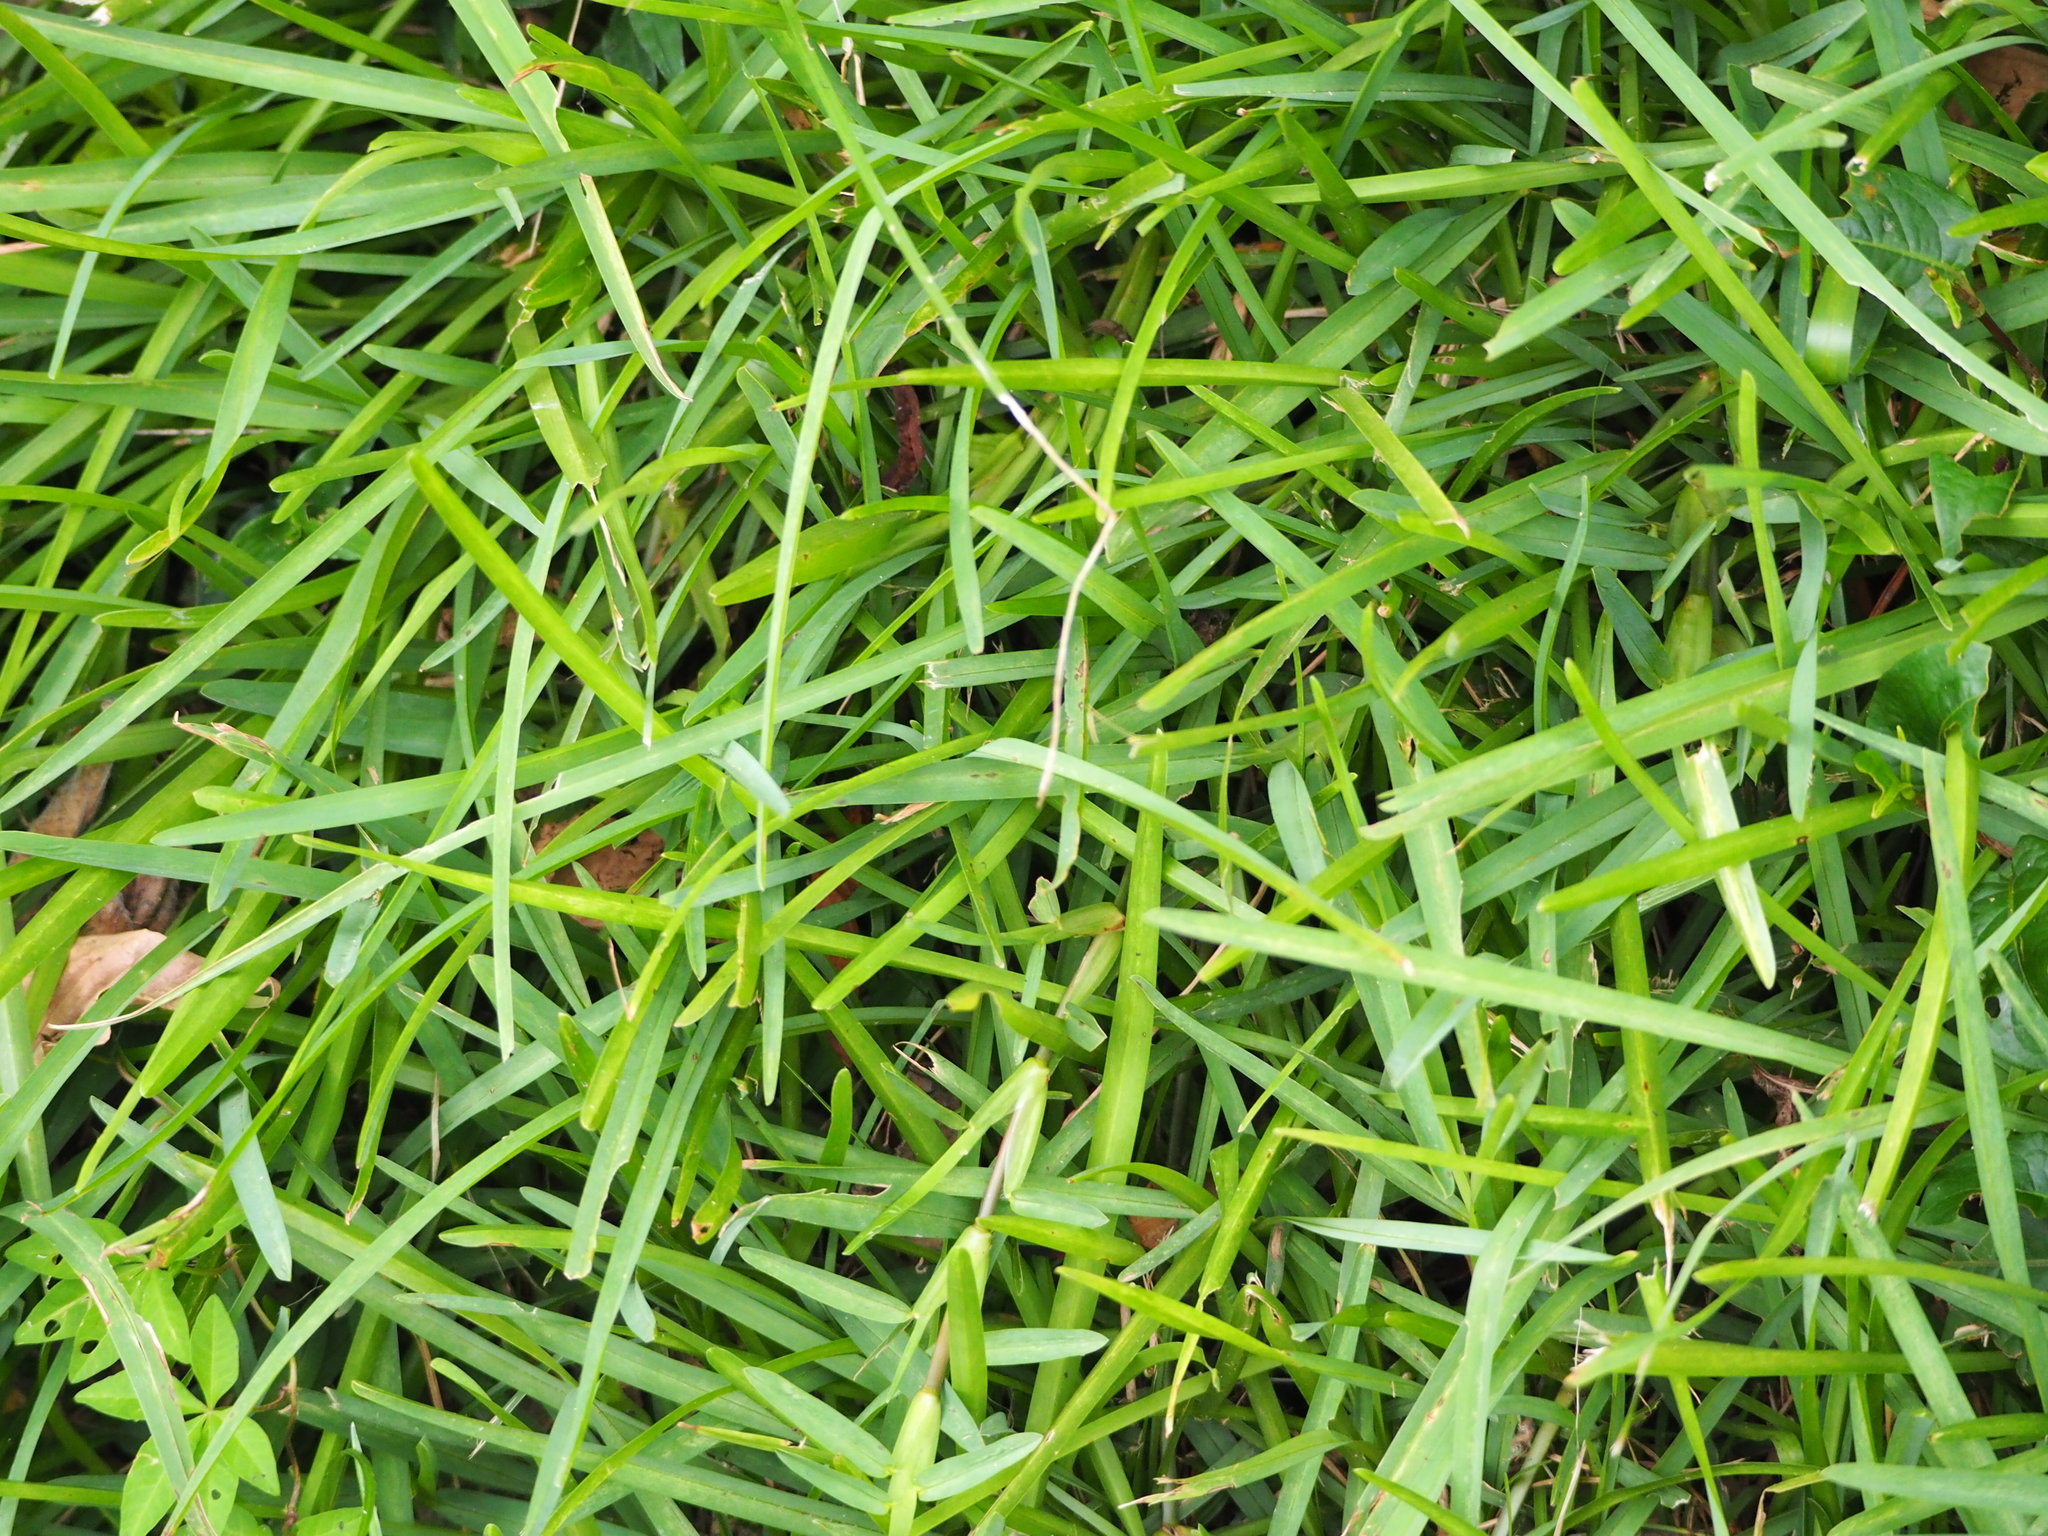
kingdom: Plantae
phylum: Tracheophyta
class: Liliopsida
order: Poales
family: Poaceae
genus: Stenotaphrum
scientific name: Stenotaphrum secundatum
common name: St. augustine grass
